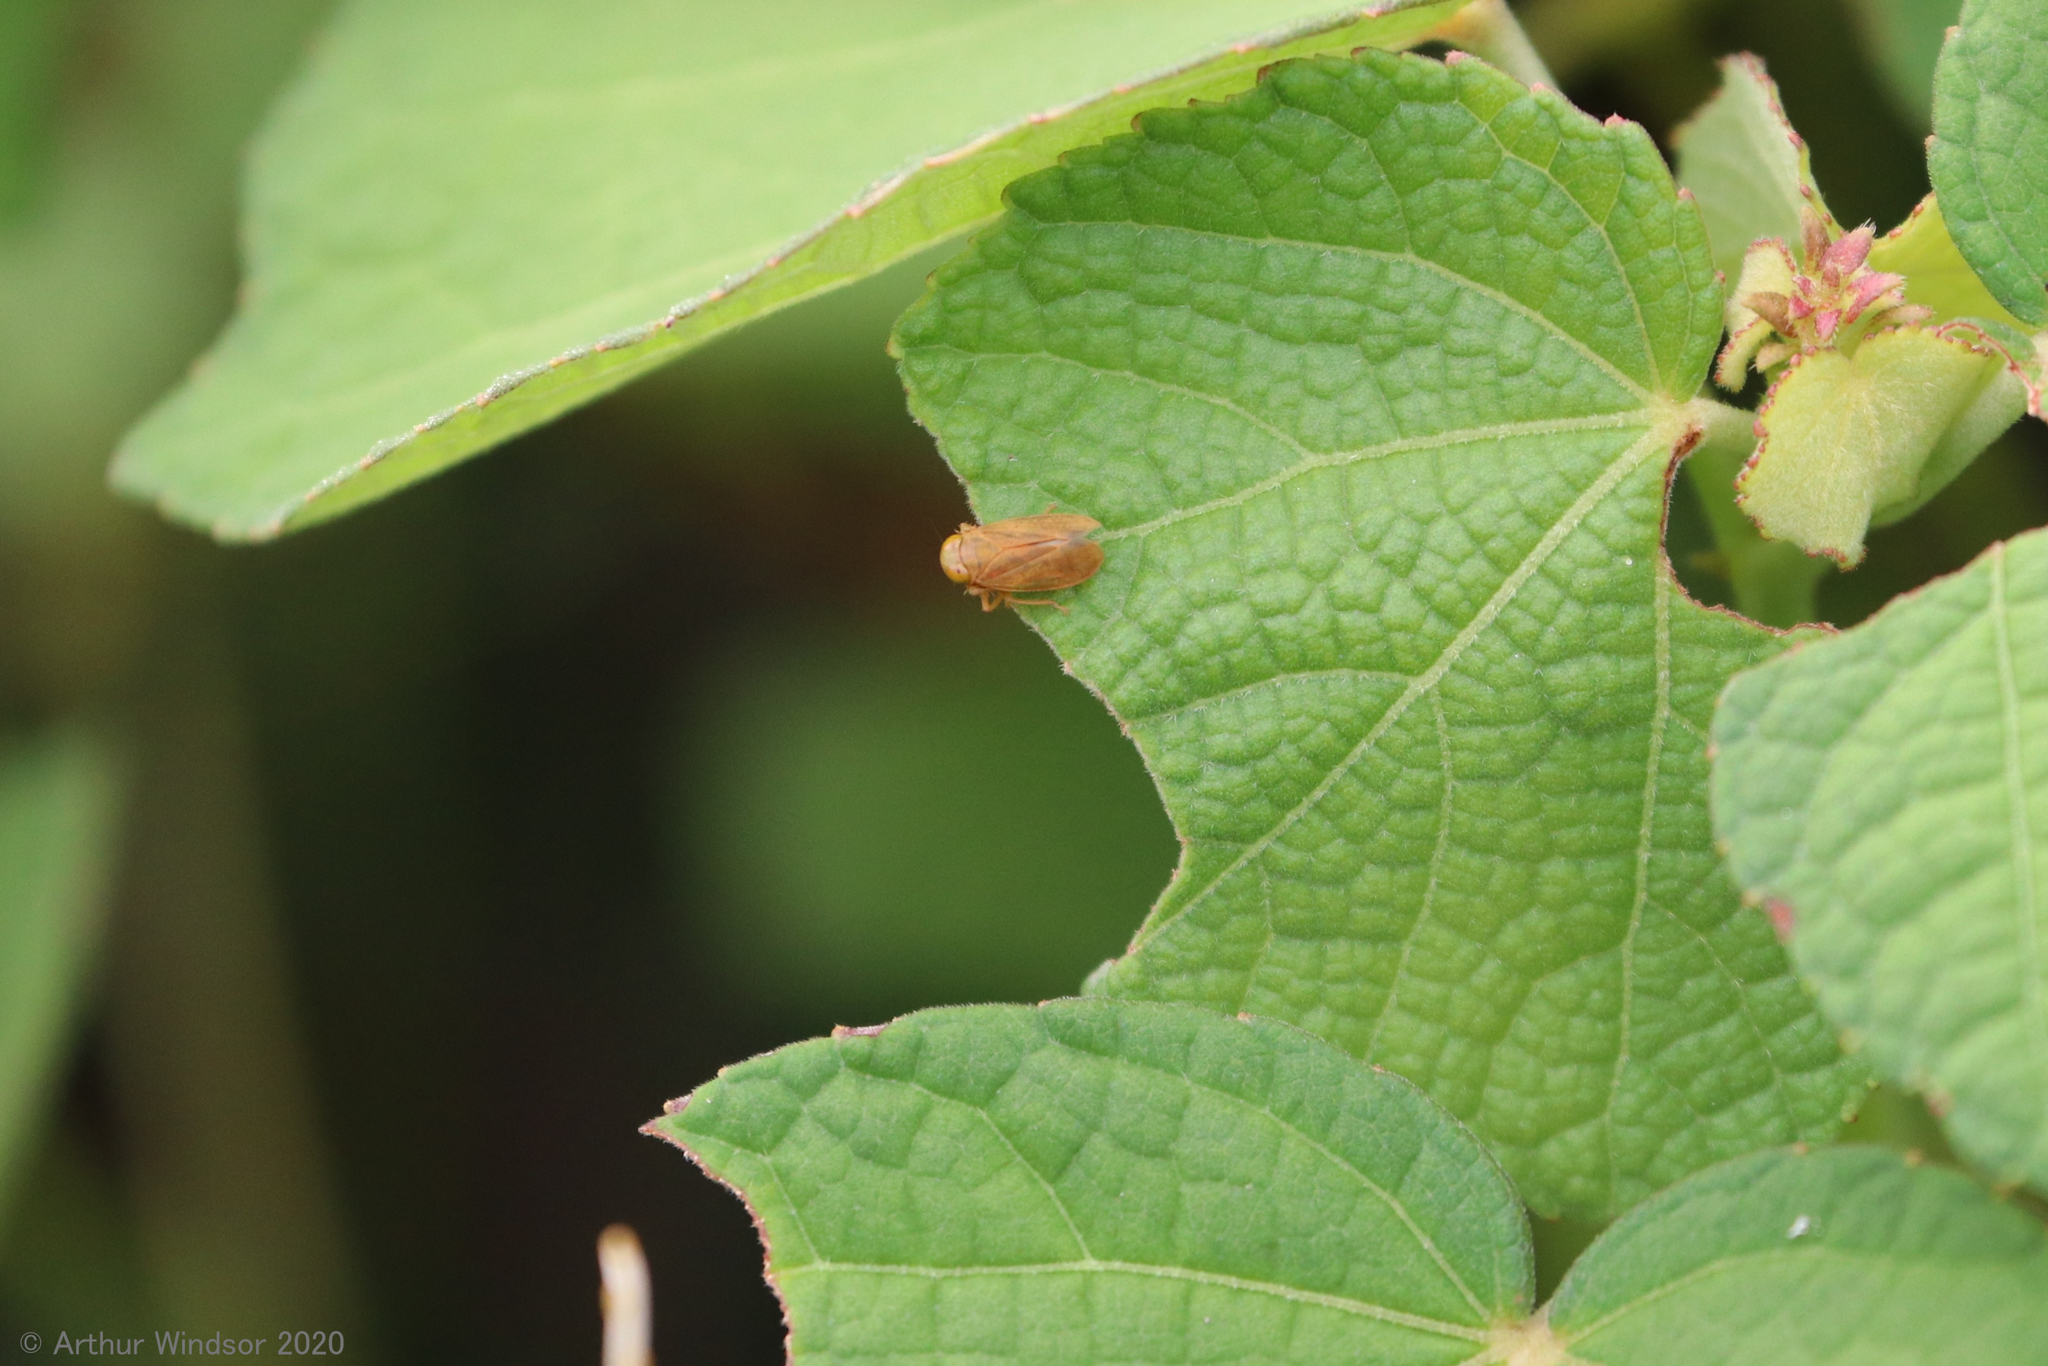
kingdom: Animalia
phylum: Arthropoda
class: Insecta
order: Hemiptera
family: Cicadellidae
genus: Jikradia
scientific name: Jikradia olitoria
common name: Coppery leafhopper
